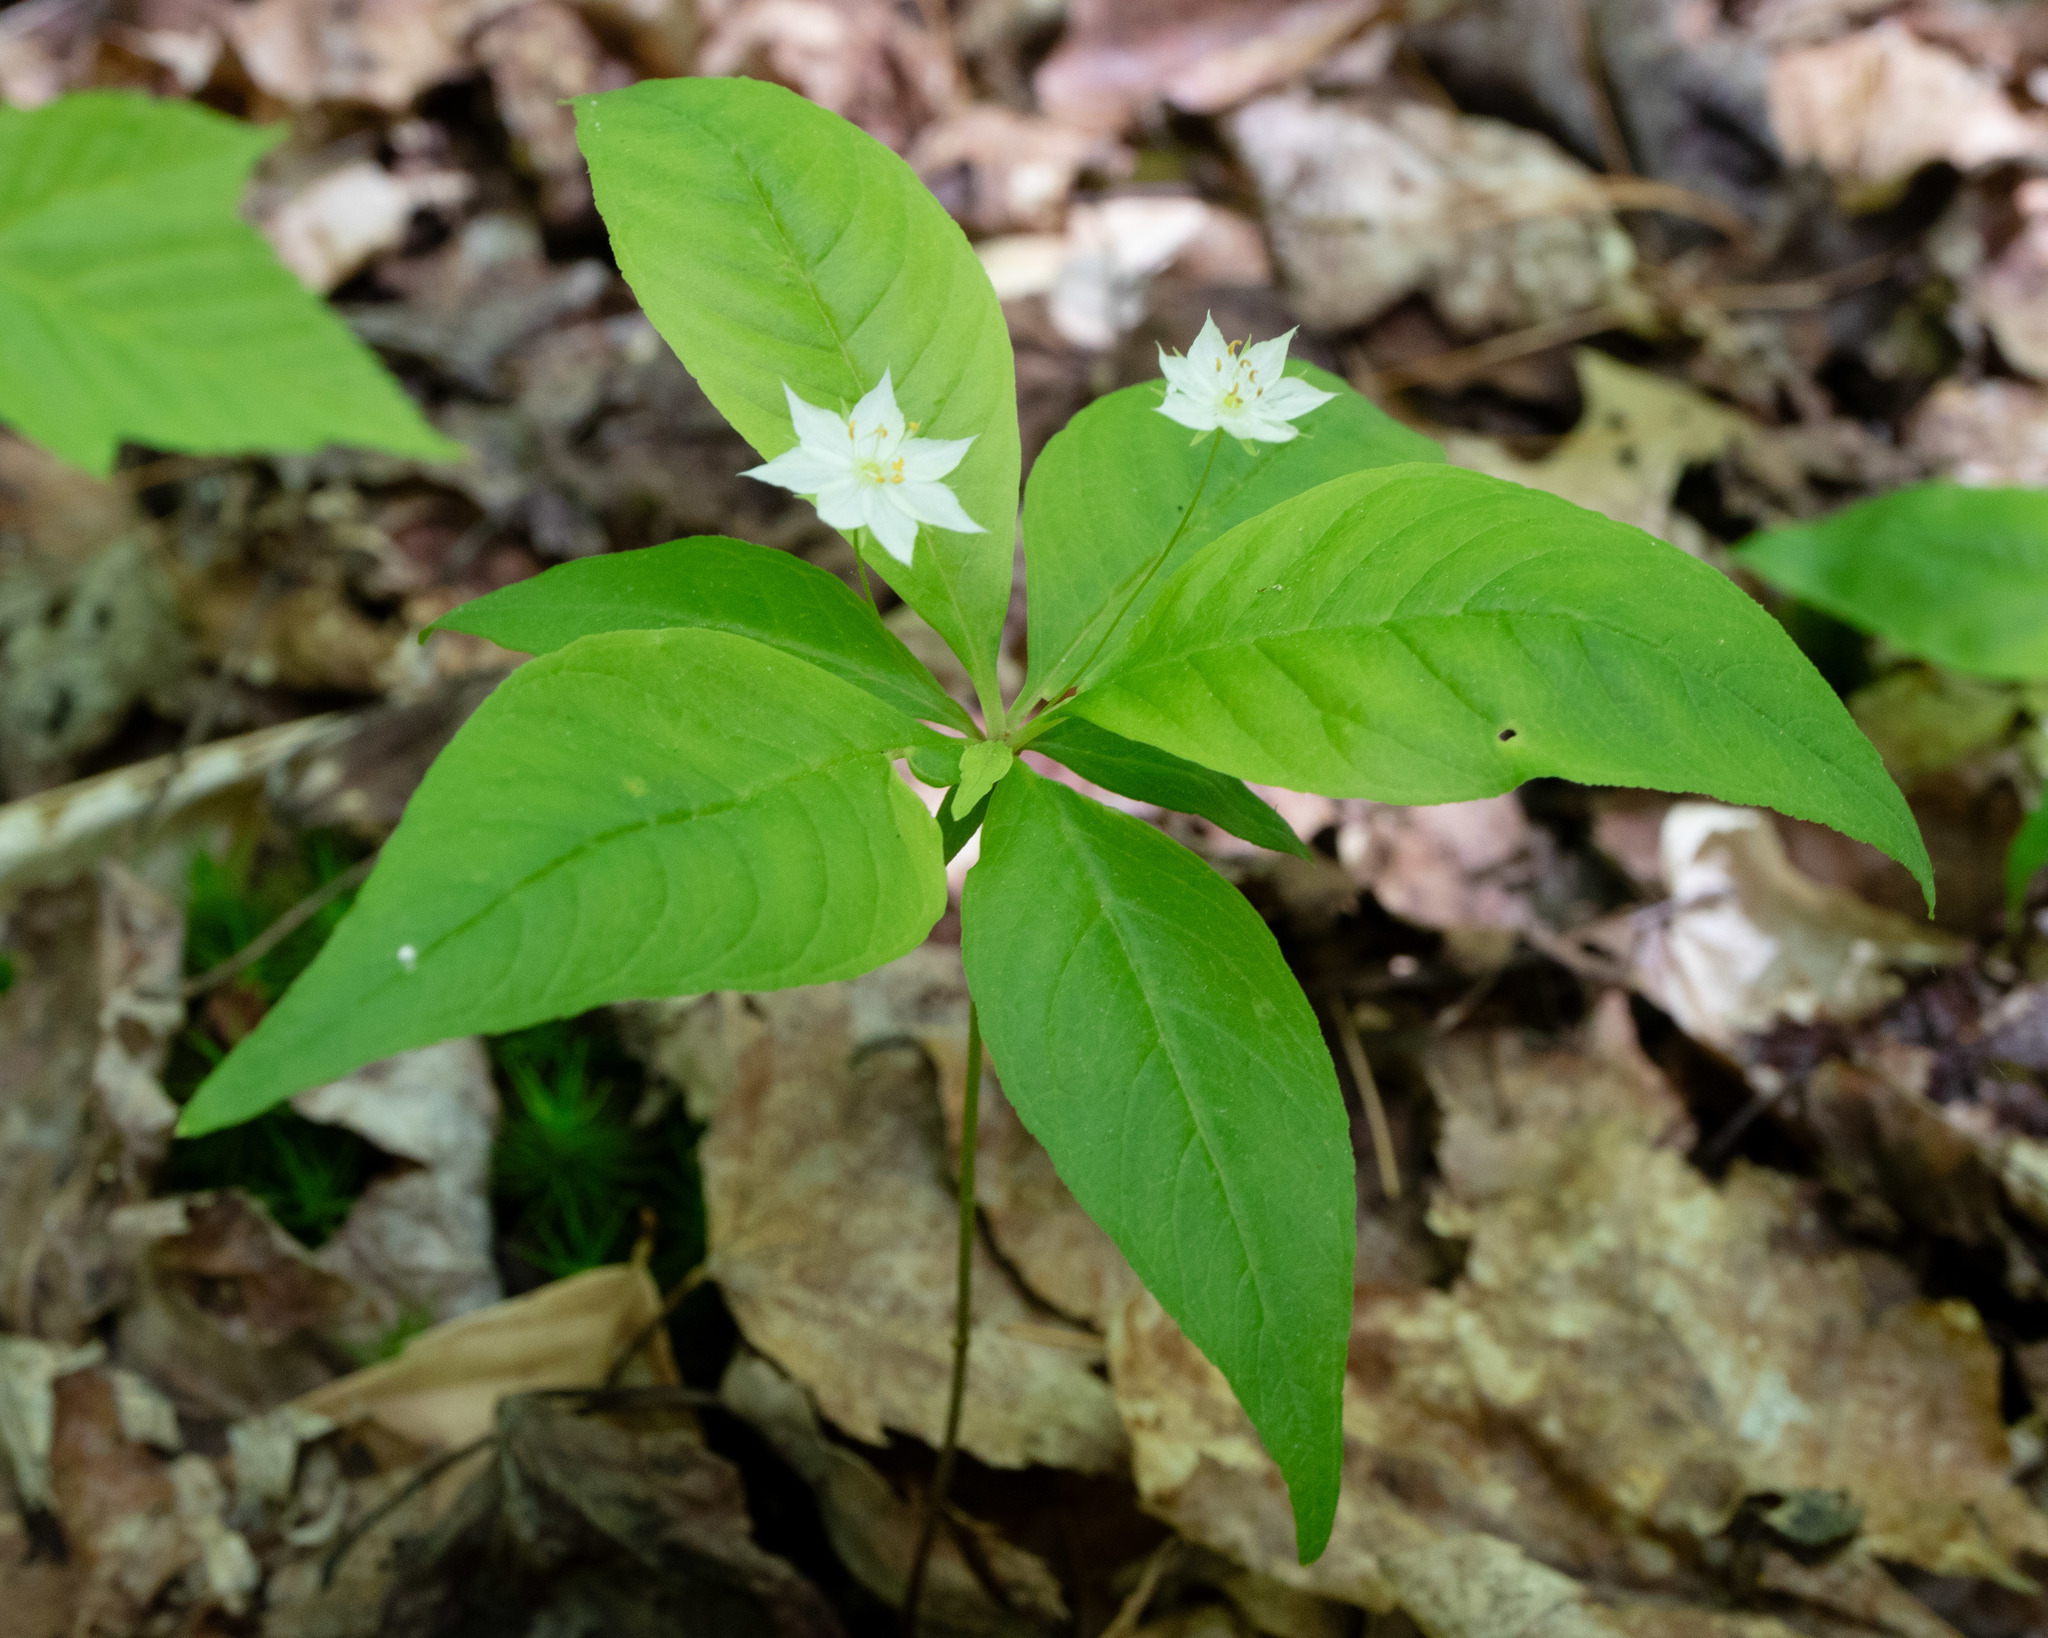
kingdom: Plantae
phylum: Tracheophyta
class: Magnoliopsida
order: Ericales
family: Primulaceae
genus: Lysimachia
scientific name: Lysimachia borealis
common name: American starflower
